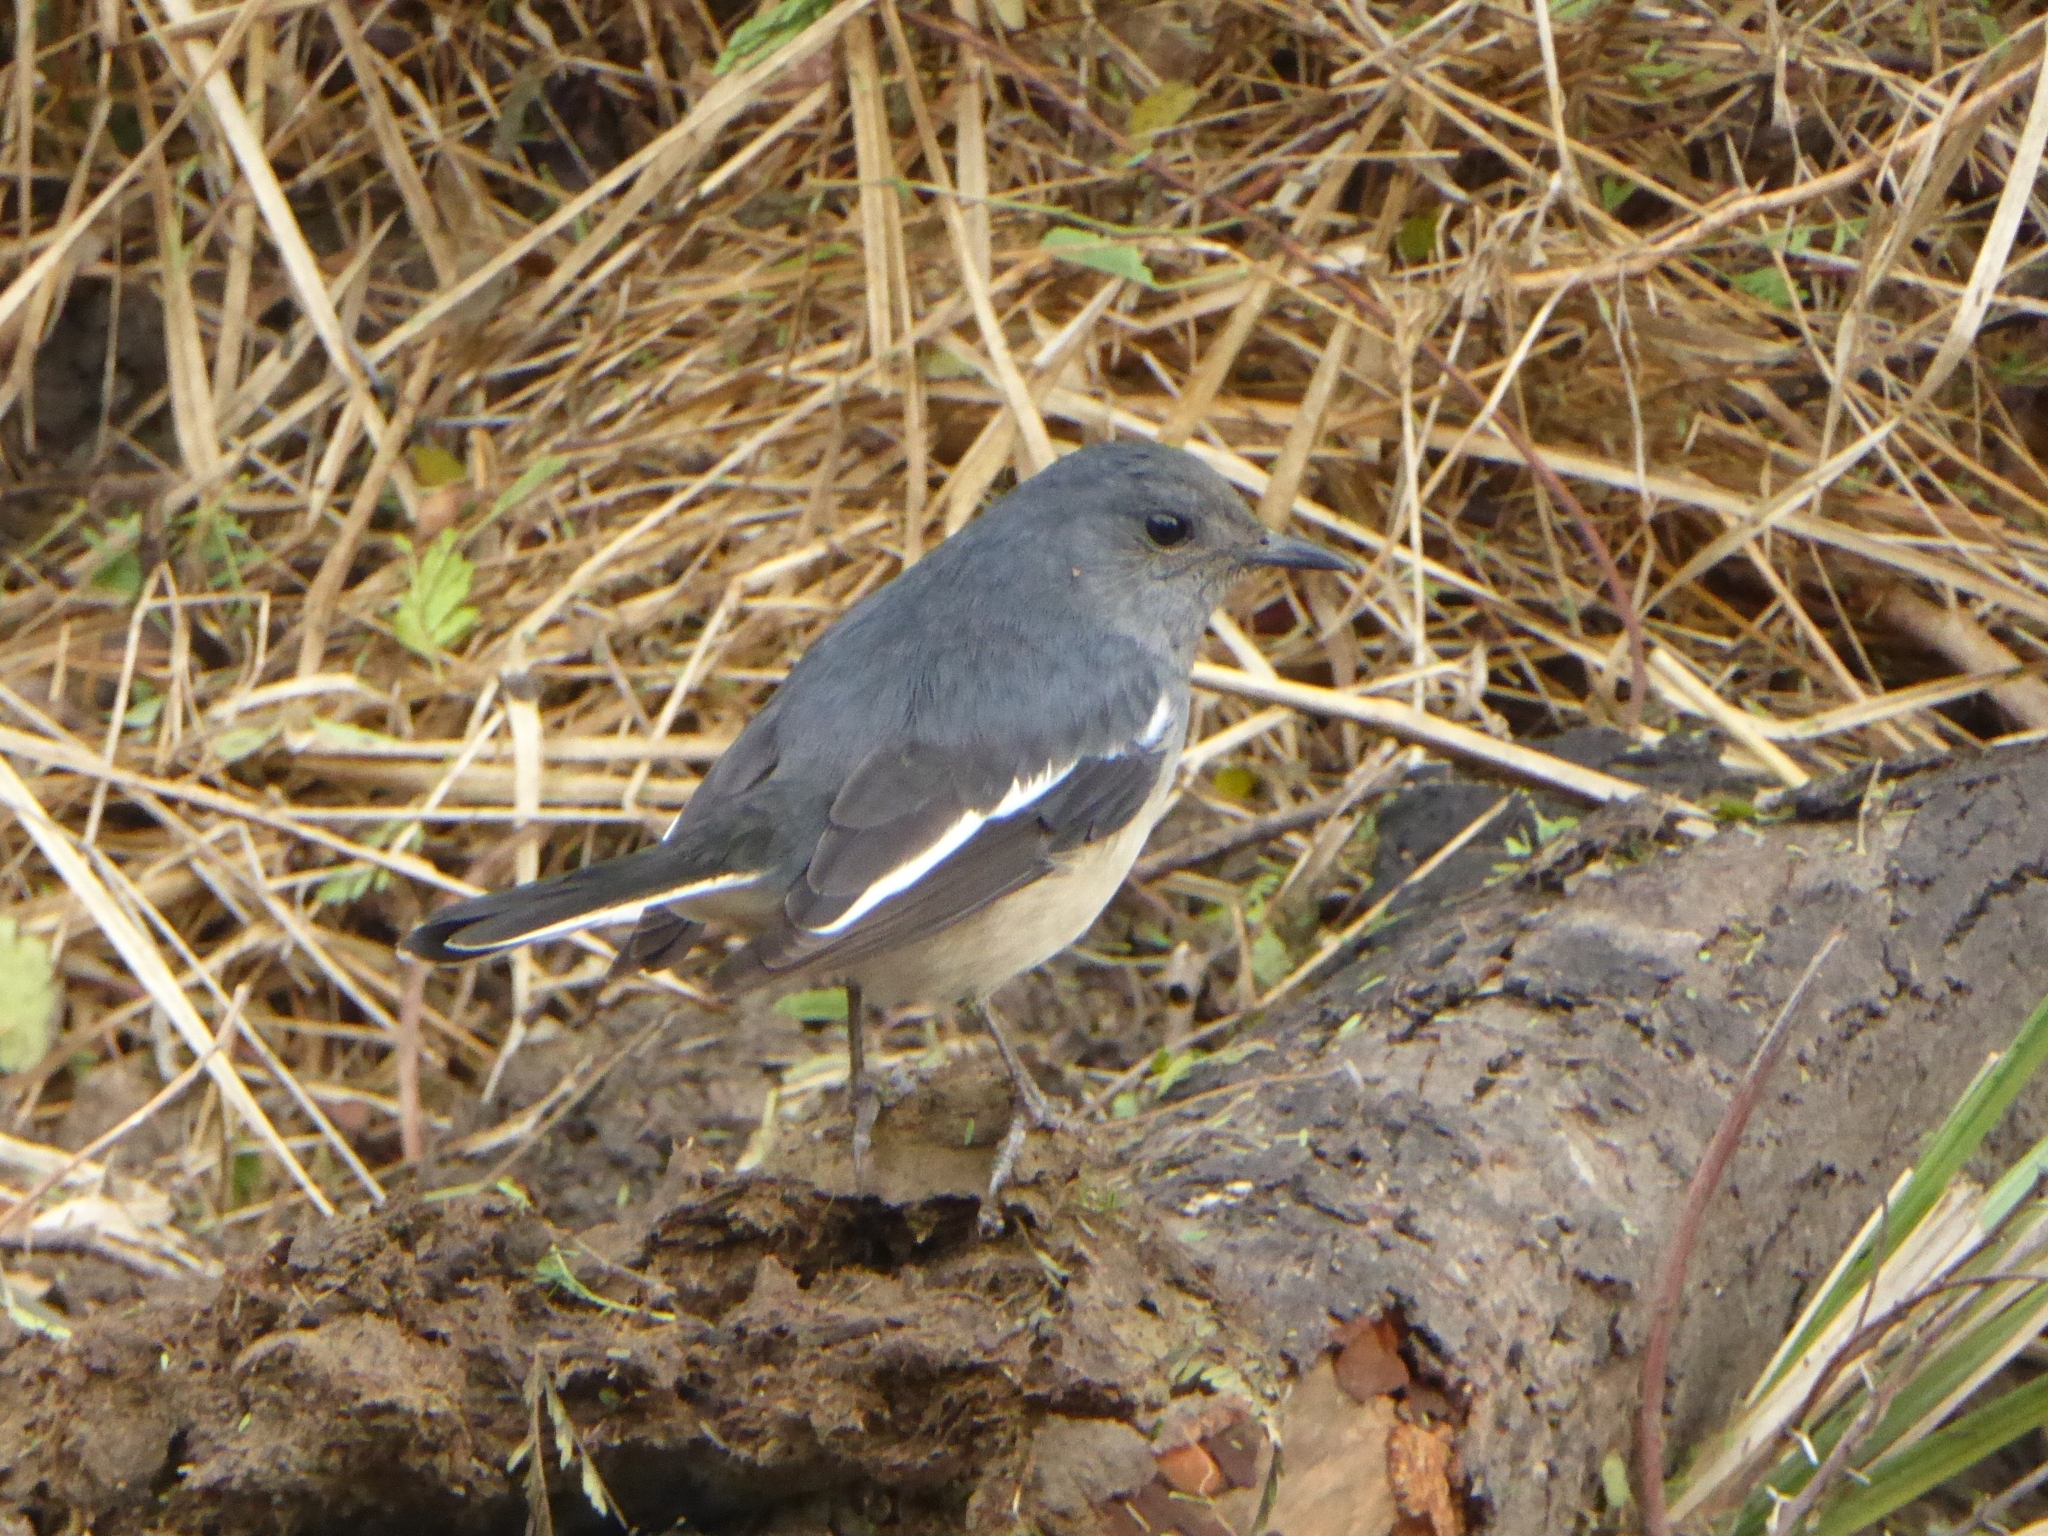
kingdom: Animalia
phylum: Chordata
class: Aves
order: Passeriformes
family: Muscicapidae
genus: Copsychus
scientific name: Copsychus saularis
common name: Oriental magpie-robin
